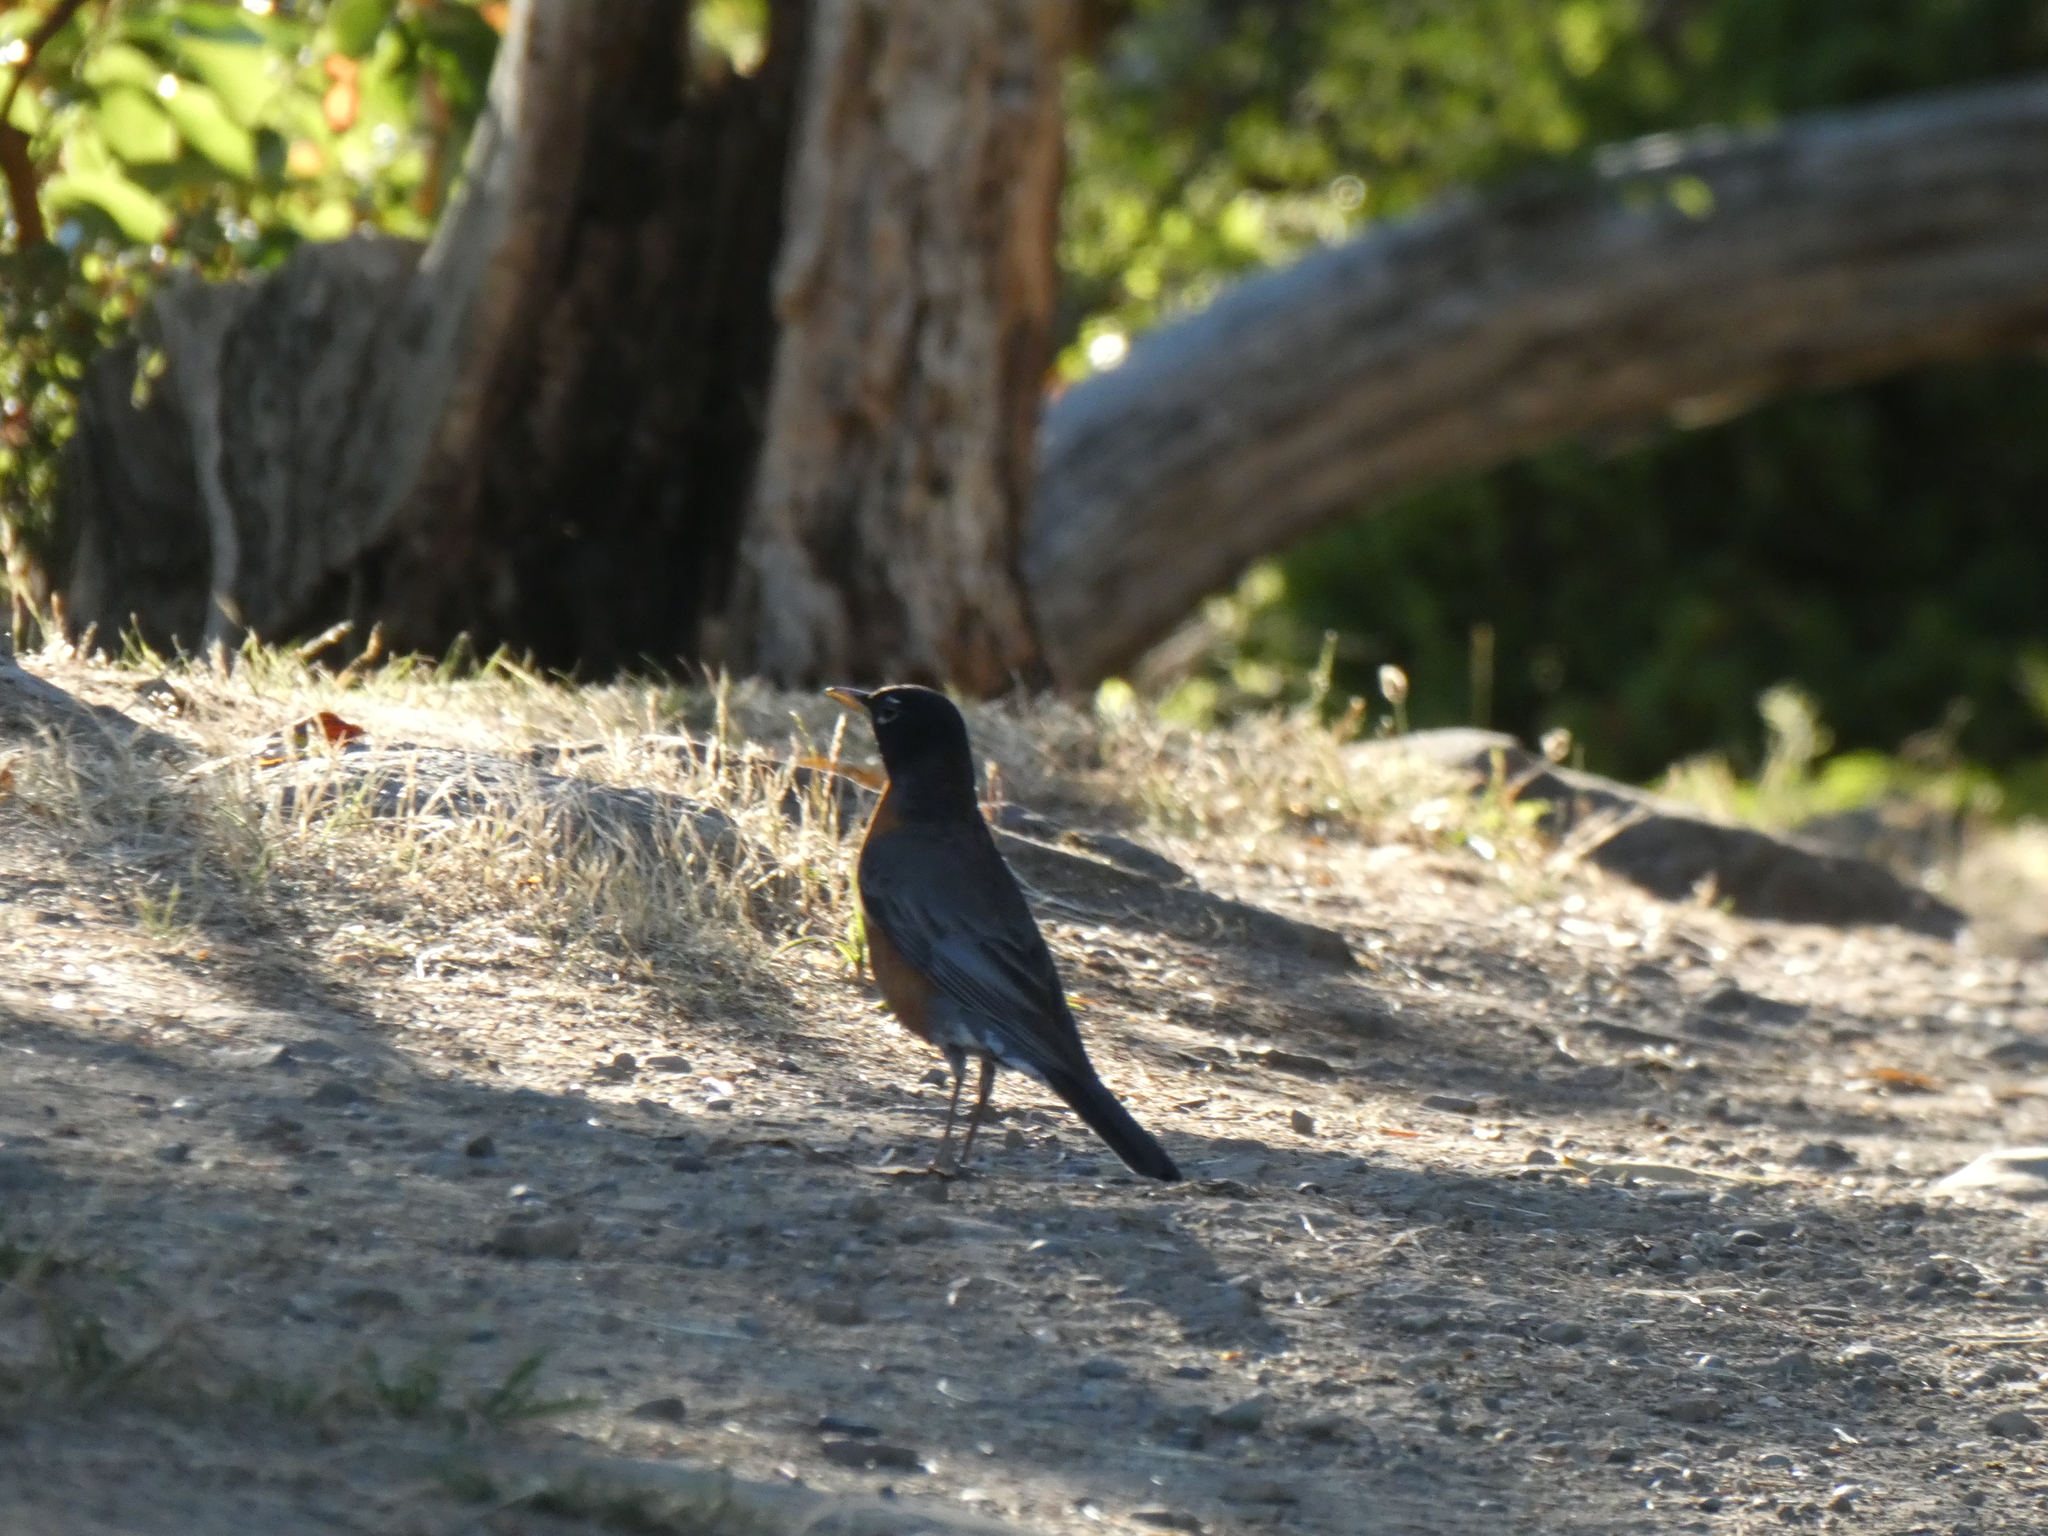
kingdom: Animalia
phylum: Chordata
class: Aves
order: Passeriformes
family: Turdidae
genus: Turdus
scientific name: Turdus migratorius
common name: American robin
